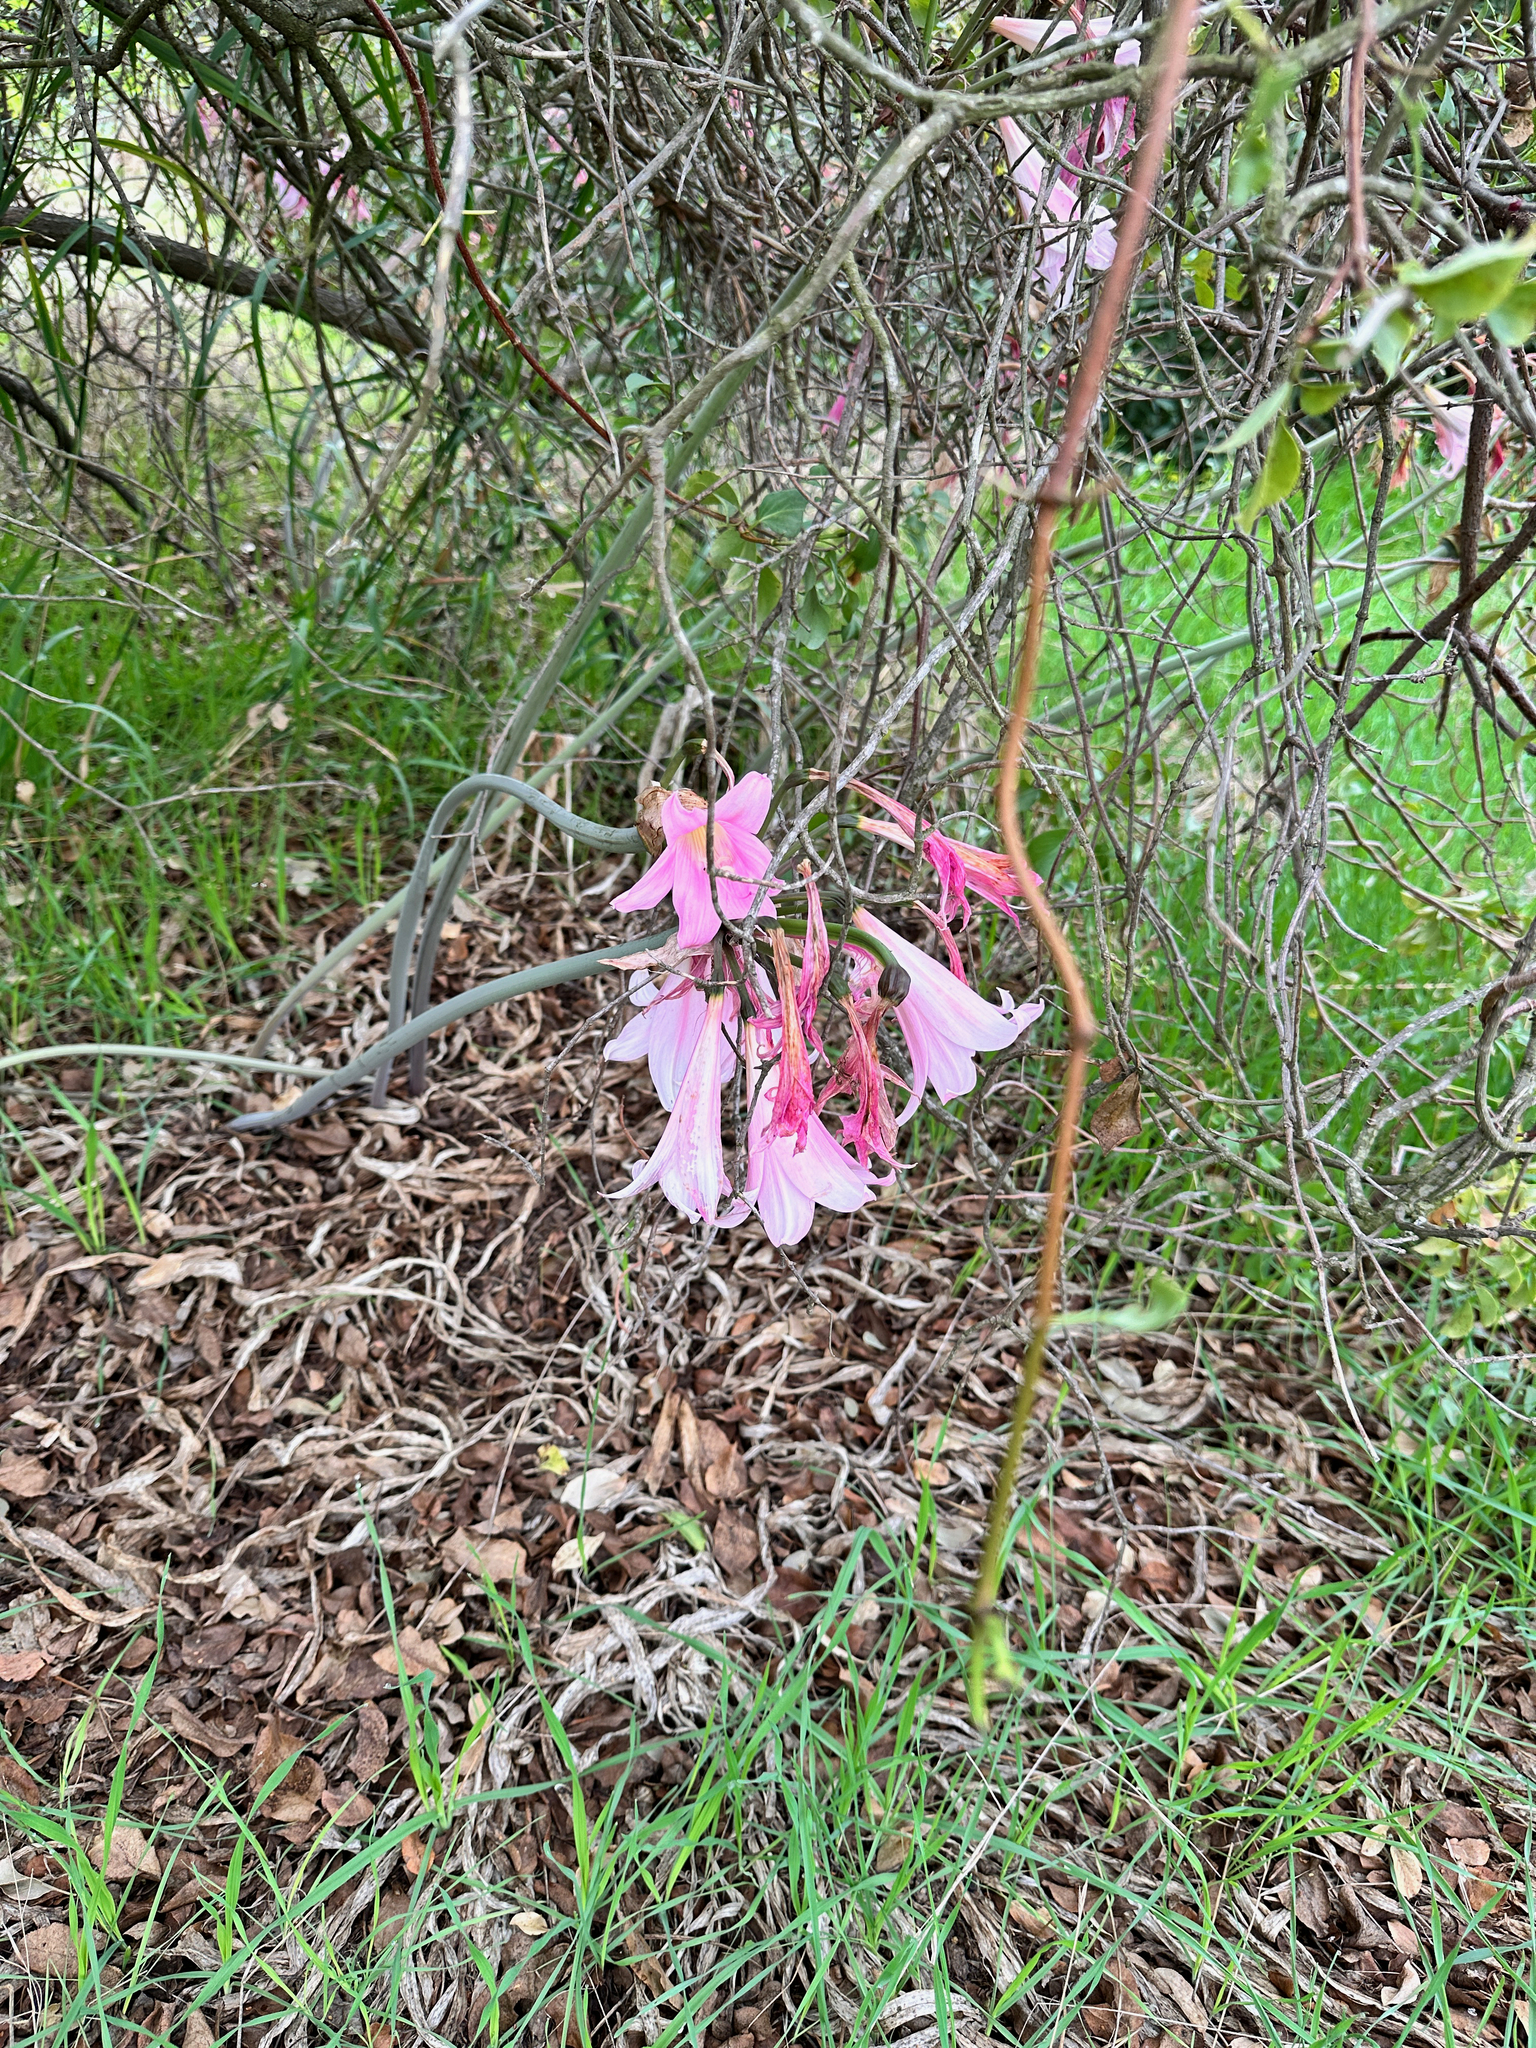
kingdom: Plantae
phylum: Tracheophyta
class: Liliopsida
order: Asparagales
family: Amaryllidaceae
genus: Amaryllis
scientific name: Amaryllis belladonna
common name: Jersey lily
